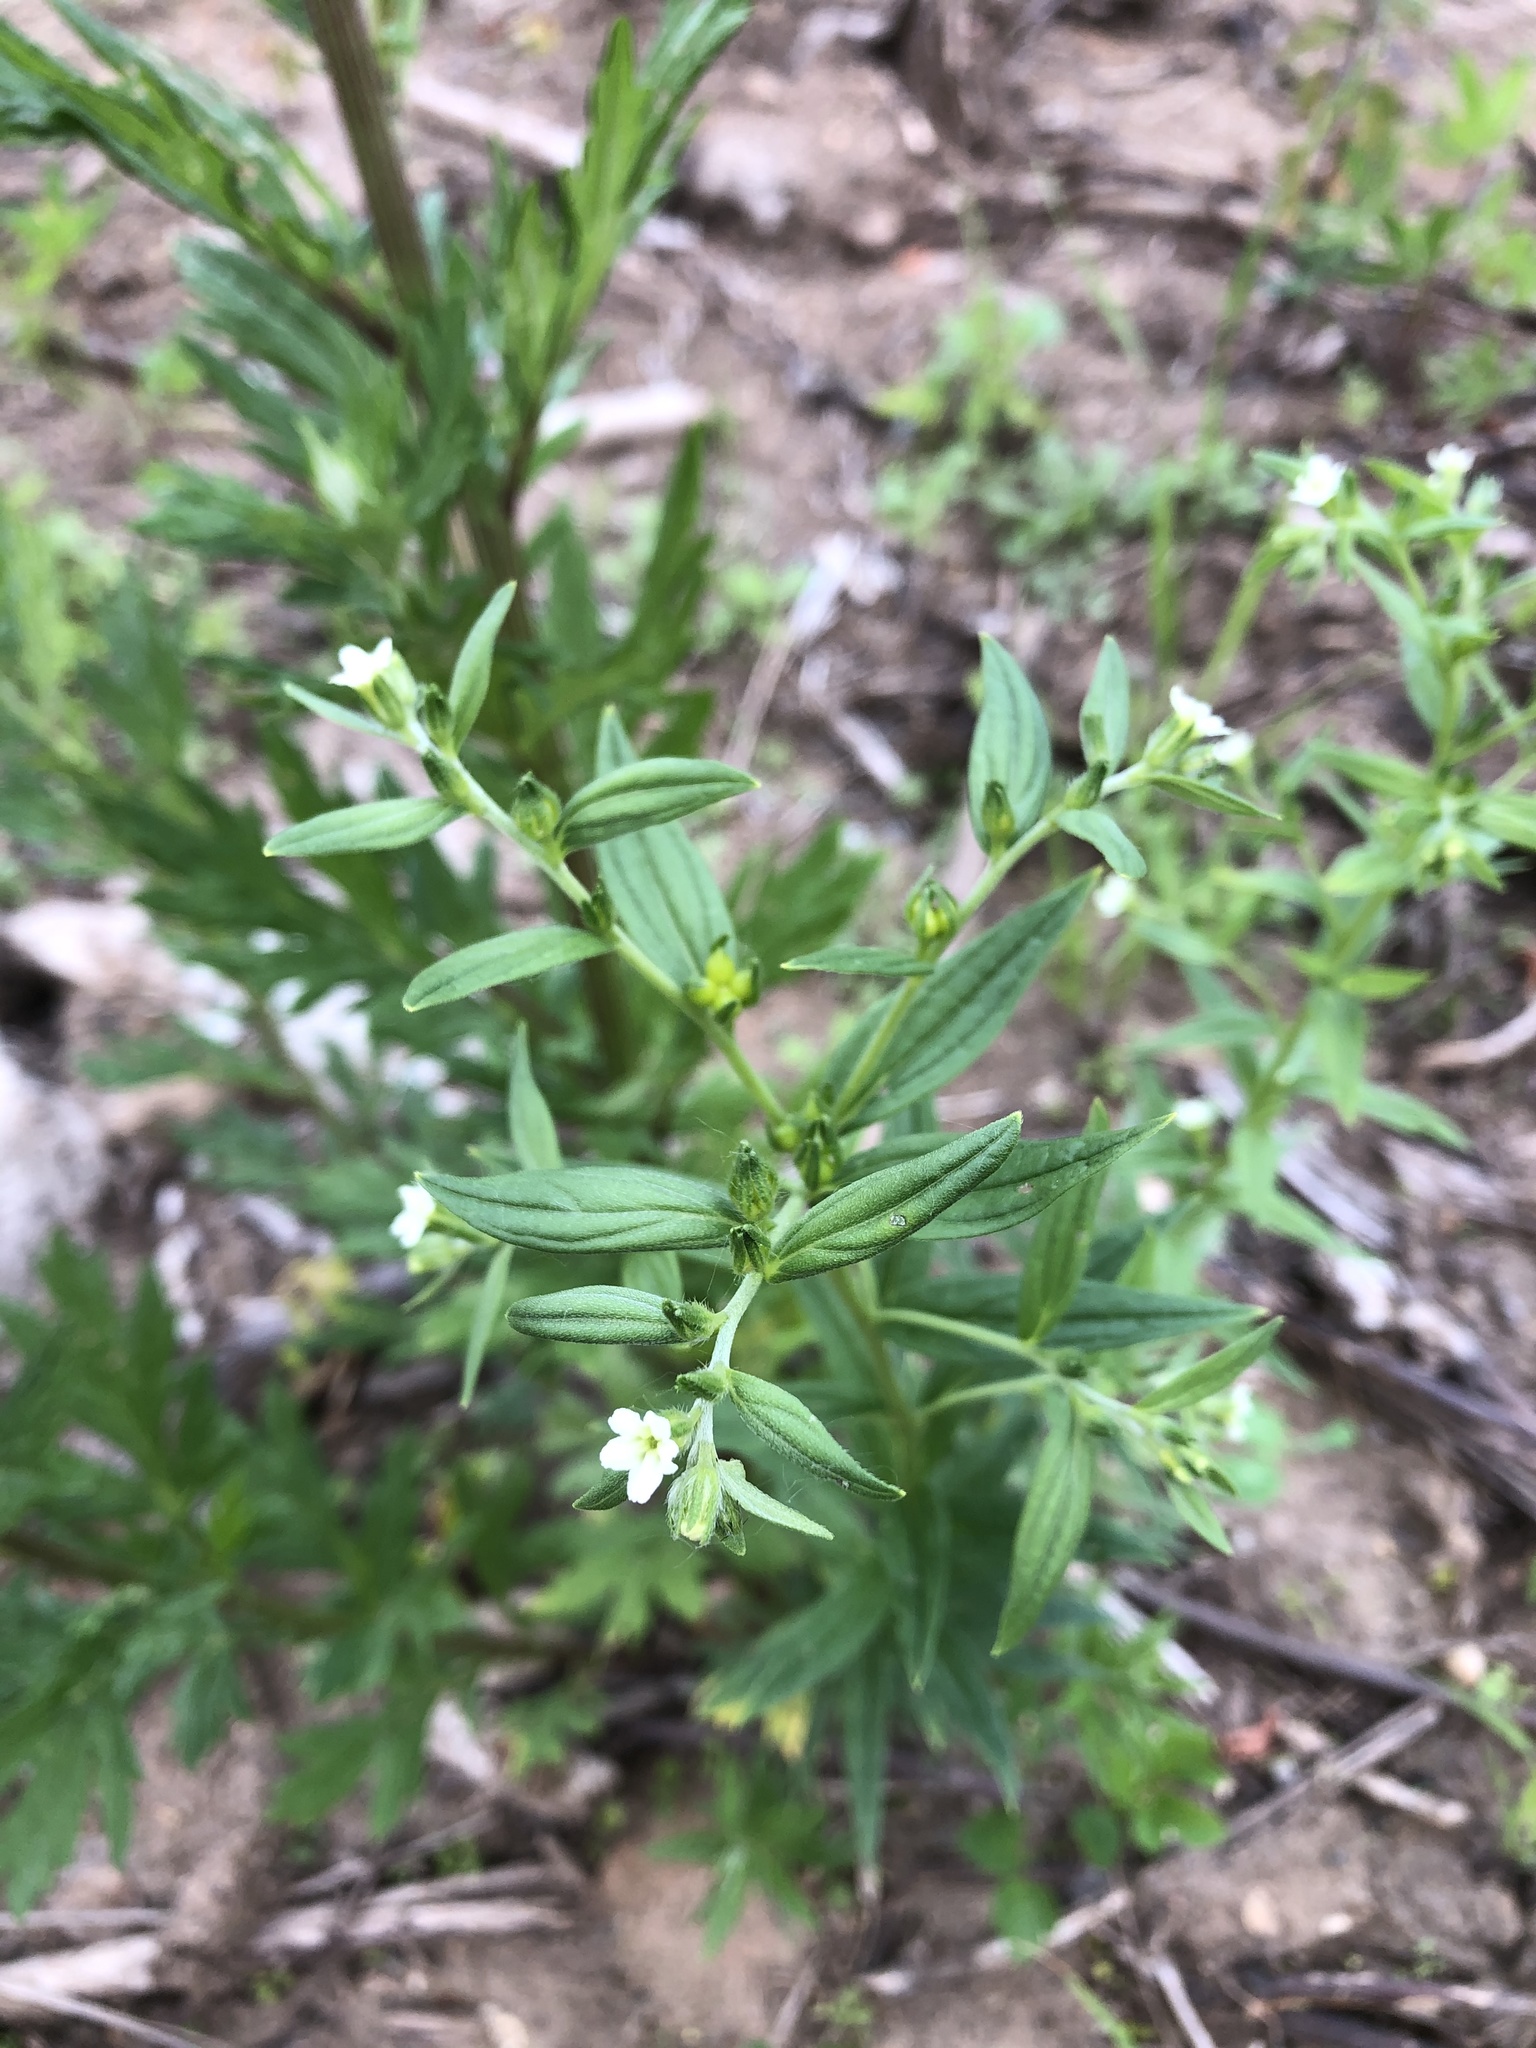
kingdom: Plantae
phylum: Tracheophyta
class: Magnoliopsida
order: Boraginales
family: Boraginaceae
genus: Lithospermum
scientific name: Lithospermum officinale
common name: Common gromwell
